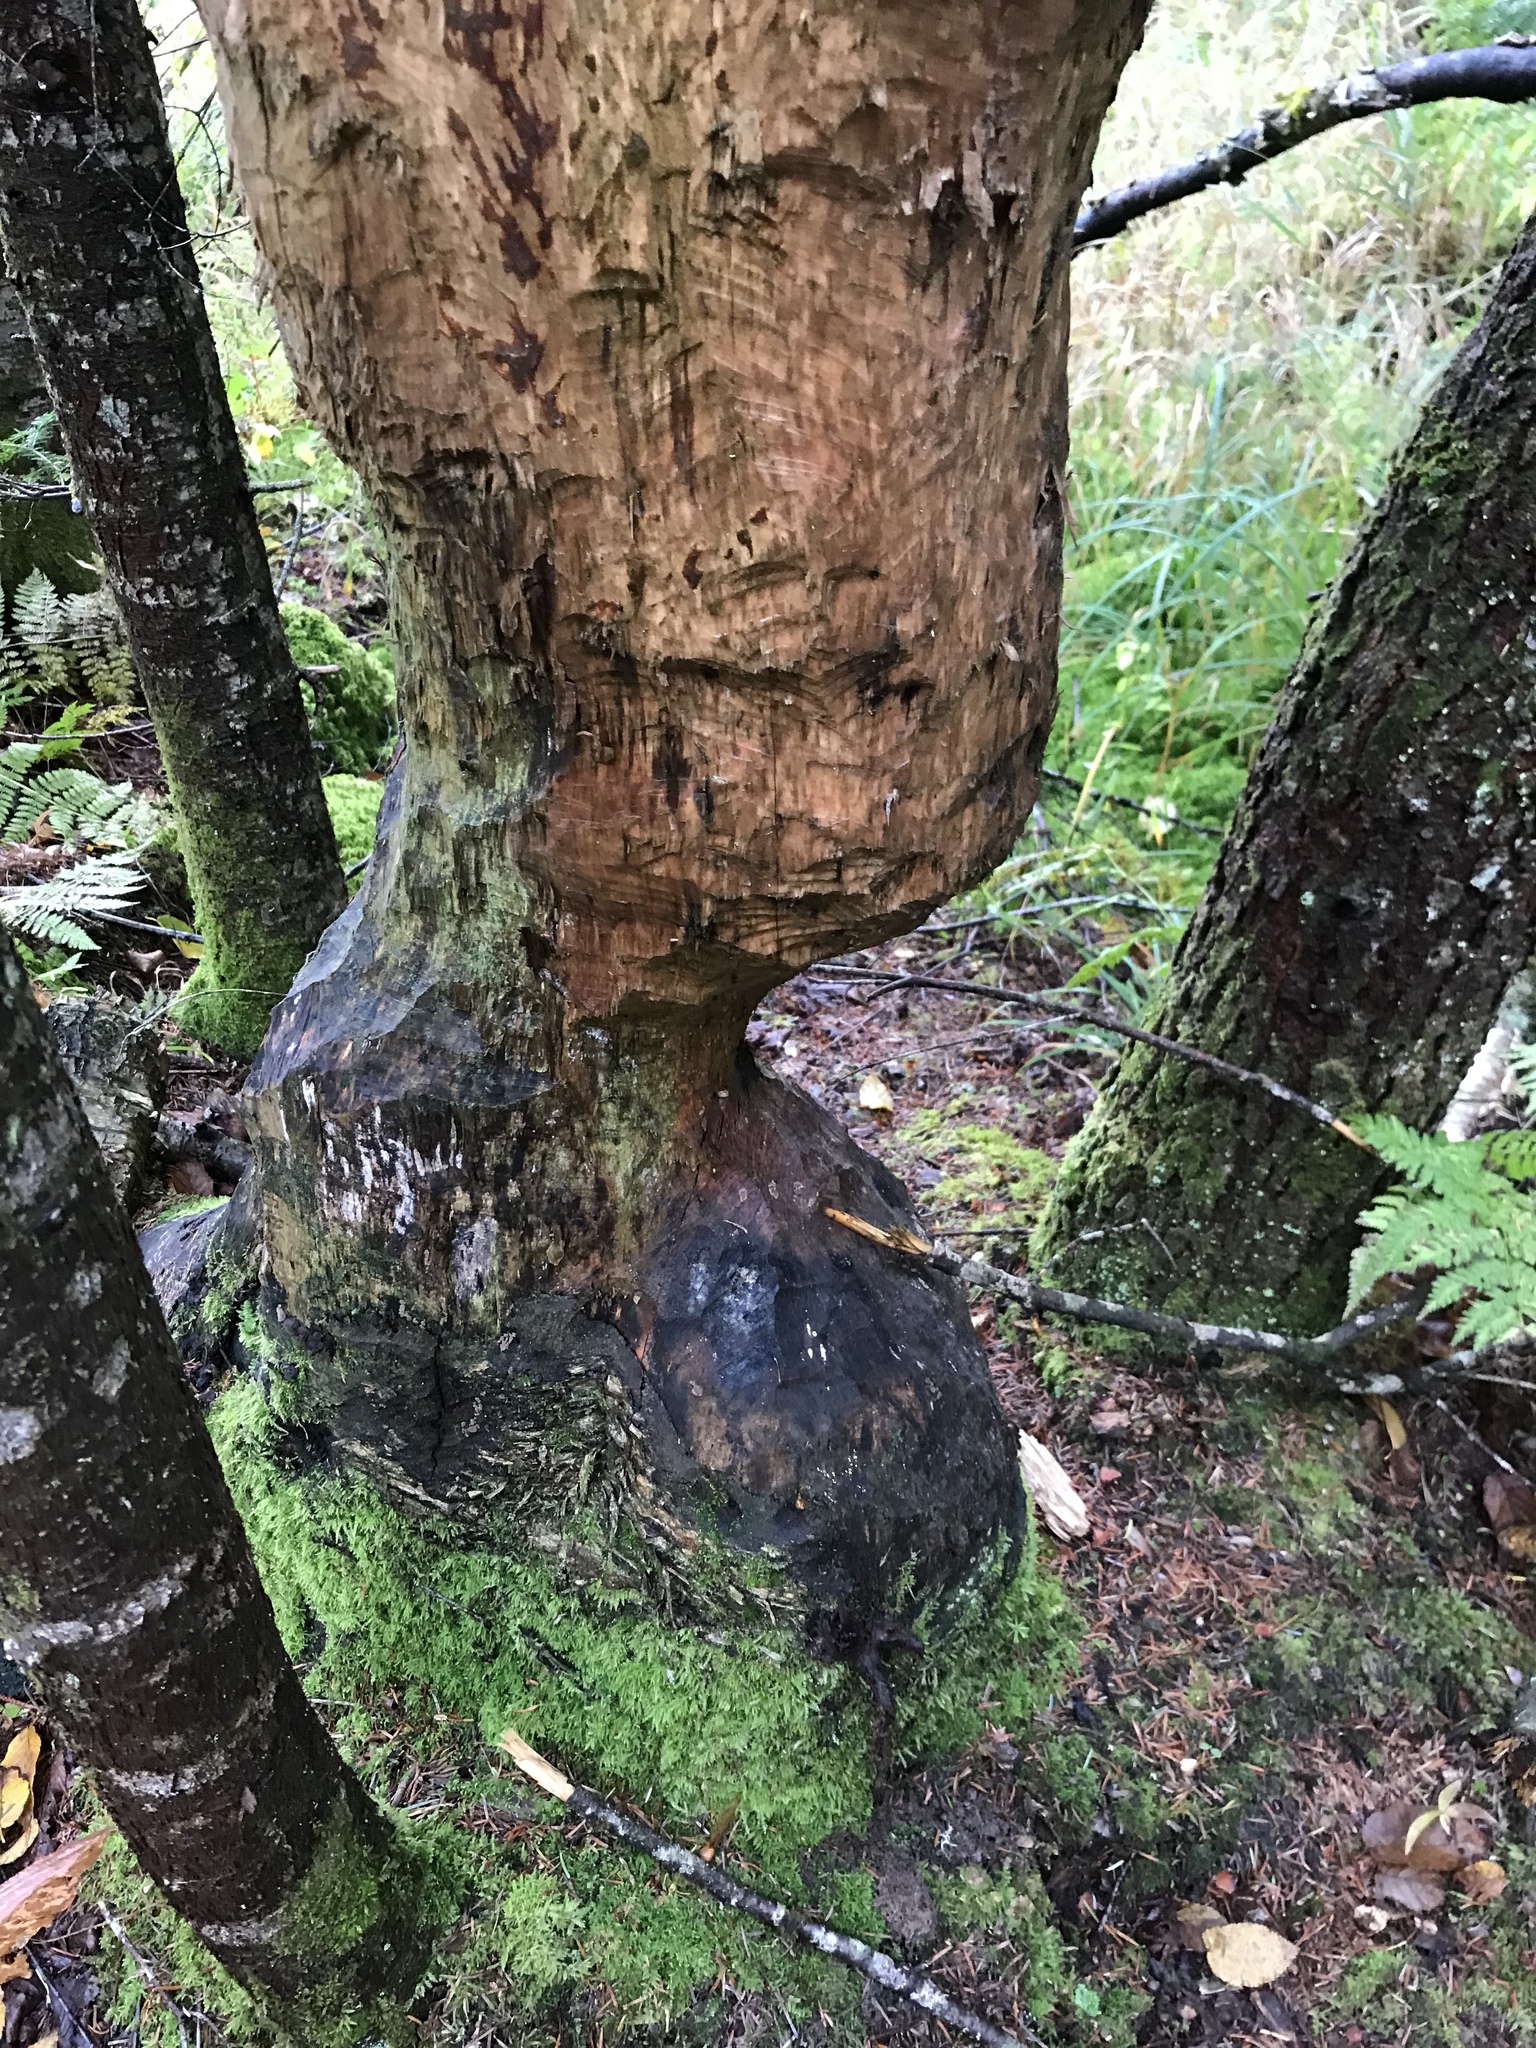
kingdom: Animalia
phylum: Chordata
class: Mammalia
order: Rodentia
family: Castoridae
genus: Castor
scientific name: Castor canadensis
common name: American beaver
